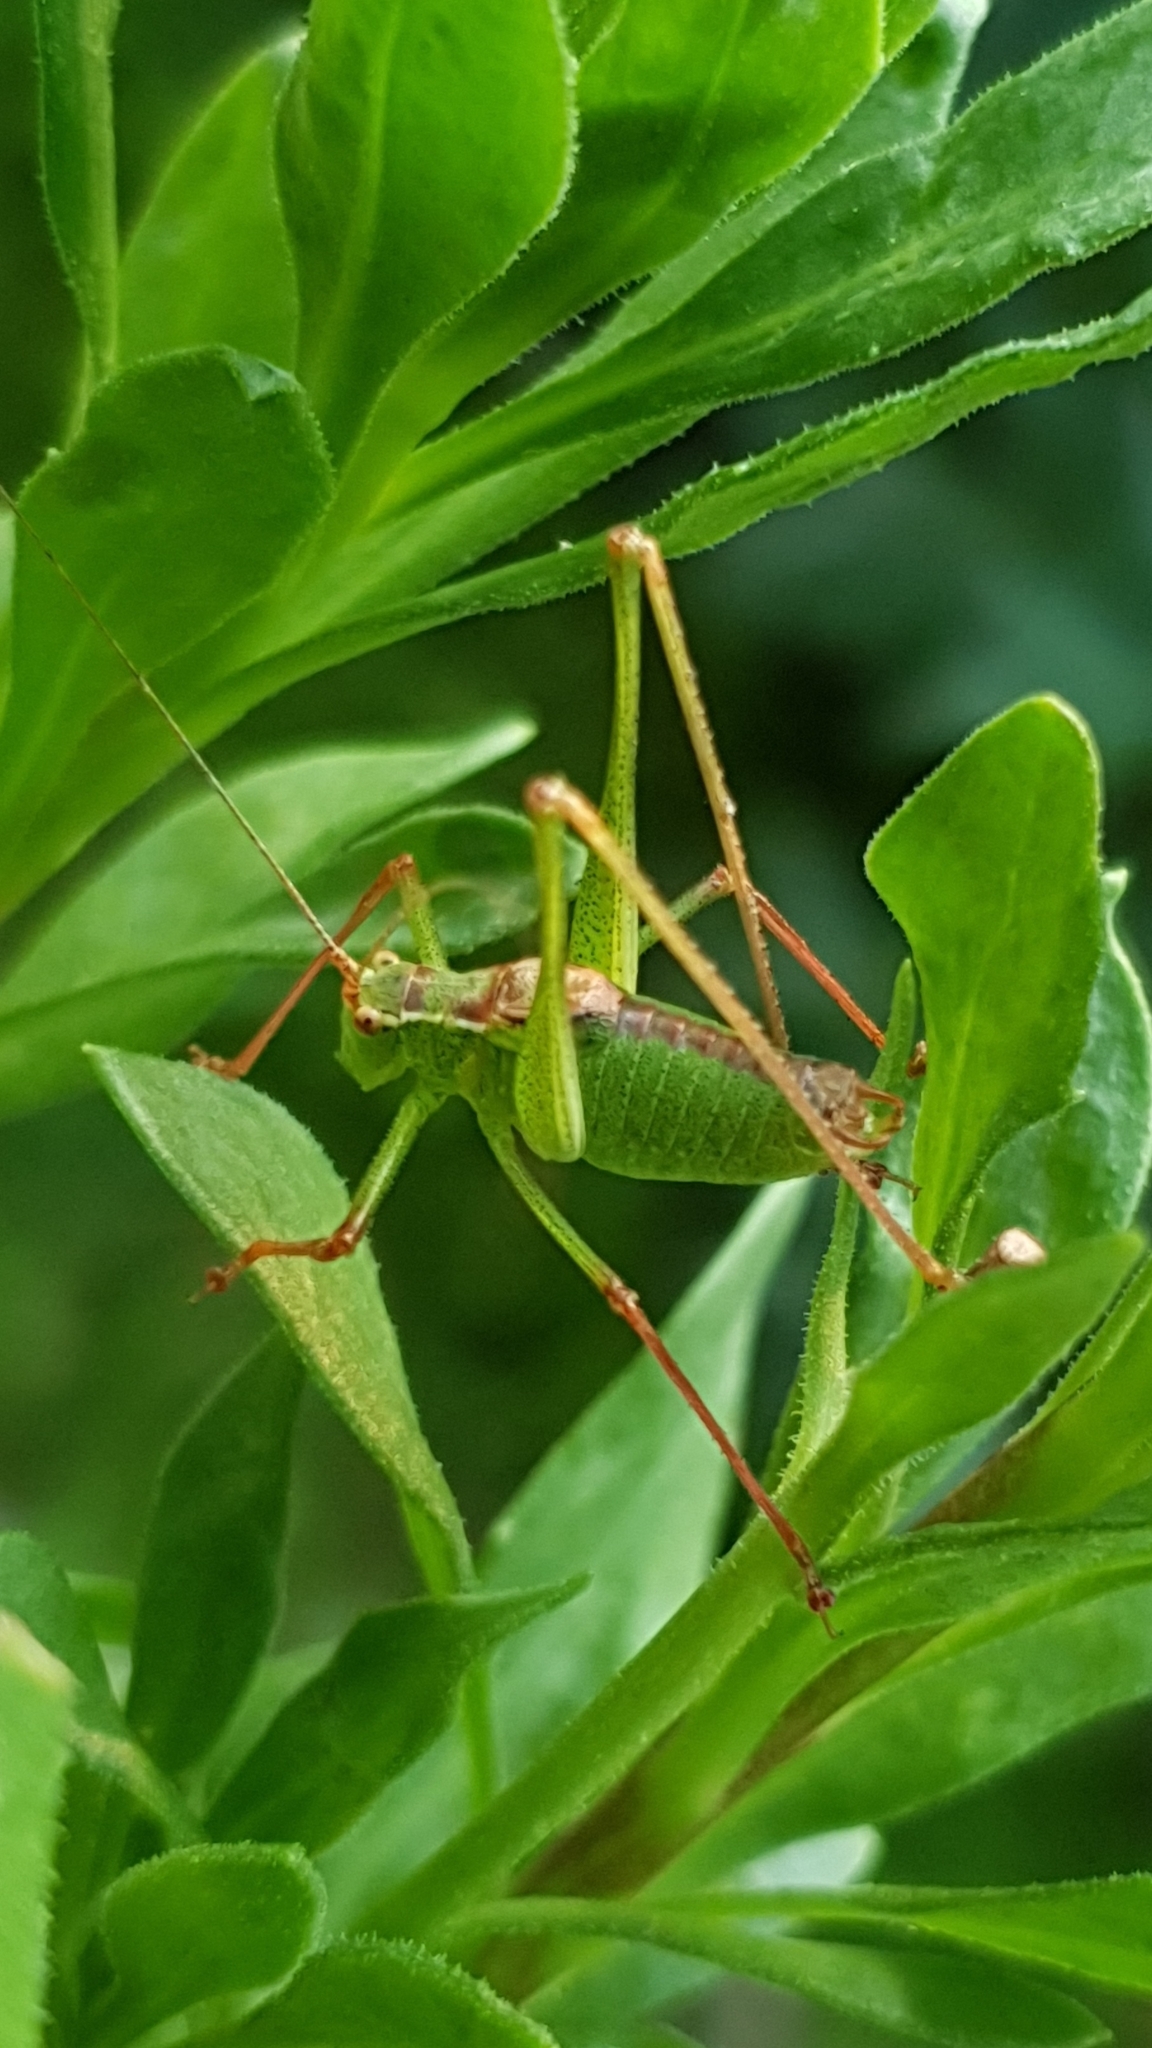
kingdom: Animalia
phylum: Arthropoda
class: Insecta
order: Orthoptera
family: Tettigoniidae
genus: Leptophyes
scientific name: Leptophyes punctatissima
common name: Speckled bush-cricket
